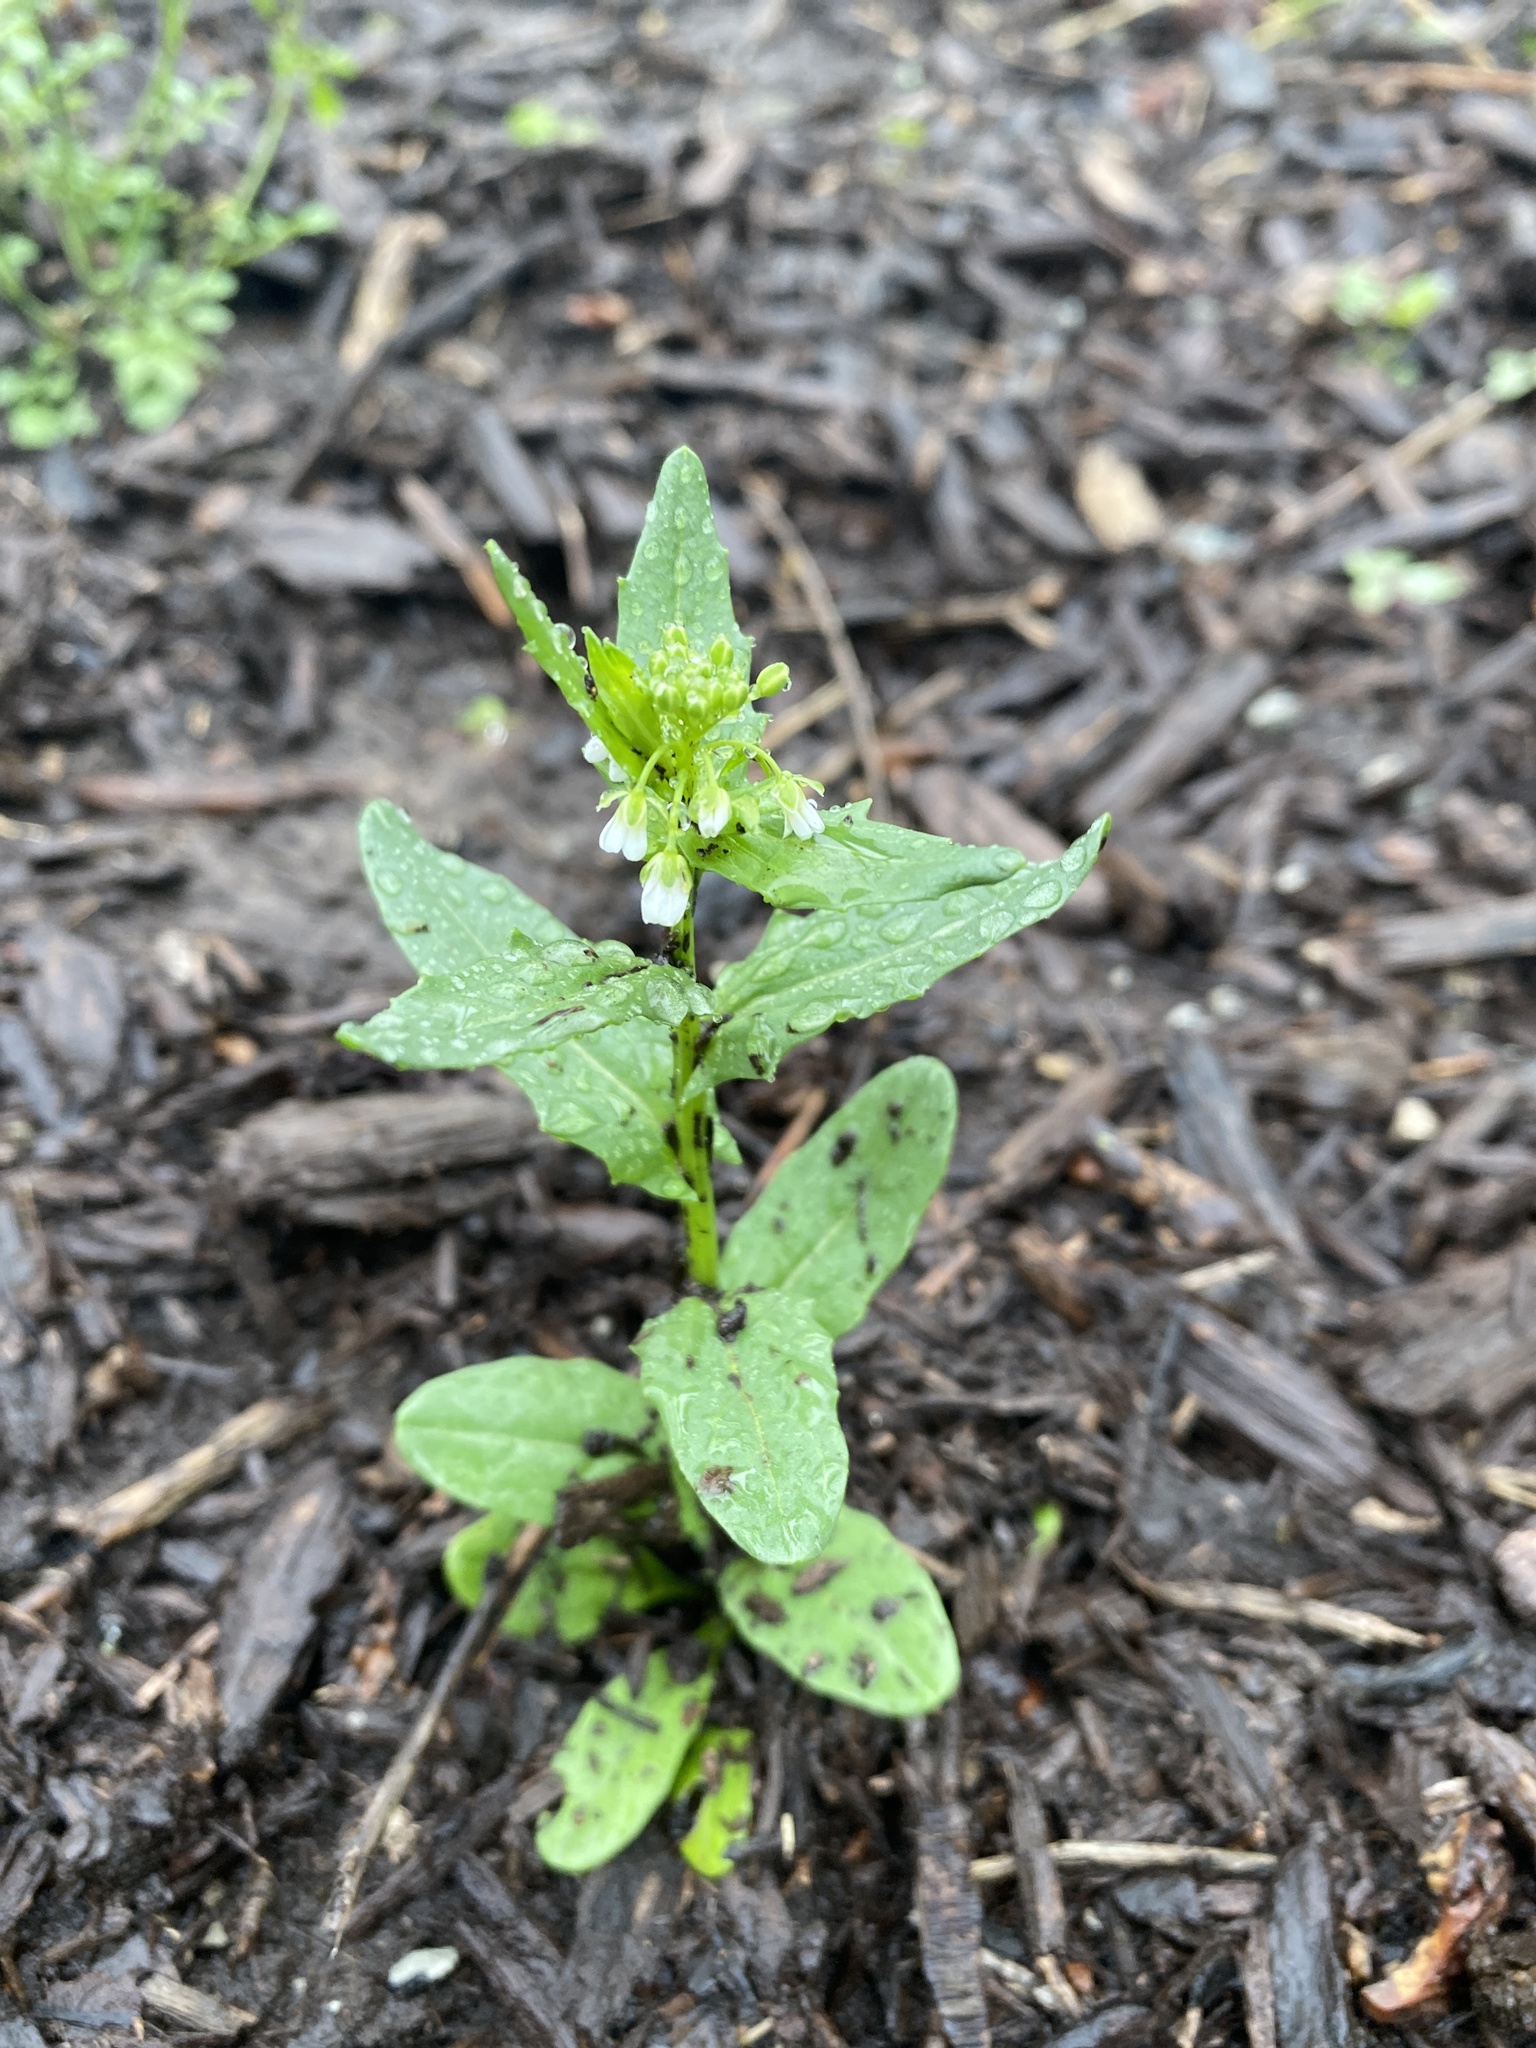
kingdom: Plantae
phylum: Tracheophyta
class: Magnoliopsida
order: Brassicales
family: Brassicaceae
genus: Thlaspi
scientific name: Thlaspi arvense
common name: Field pennycress
